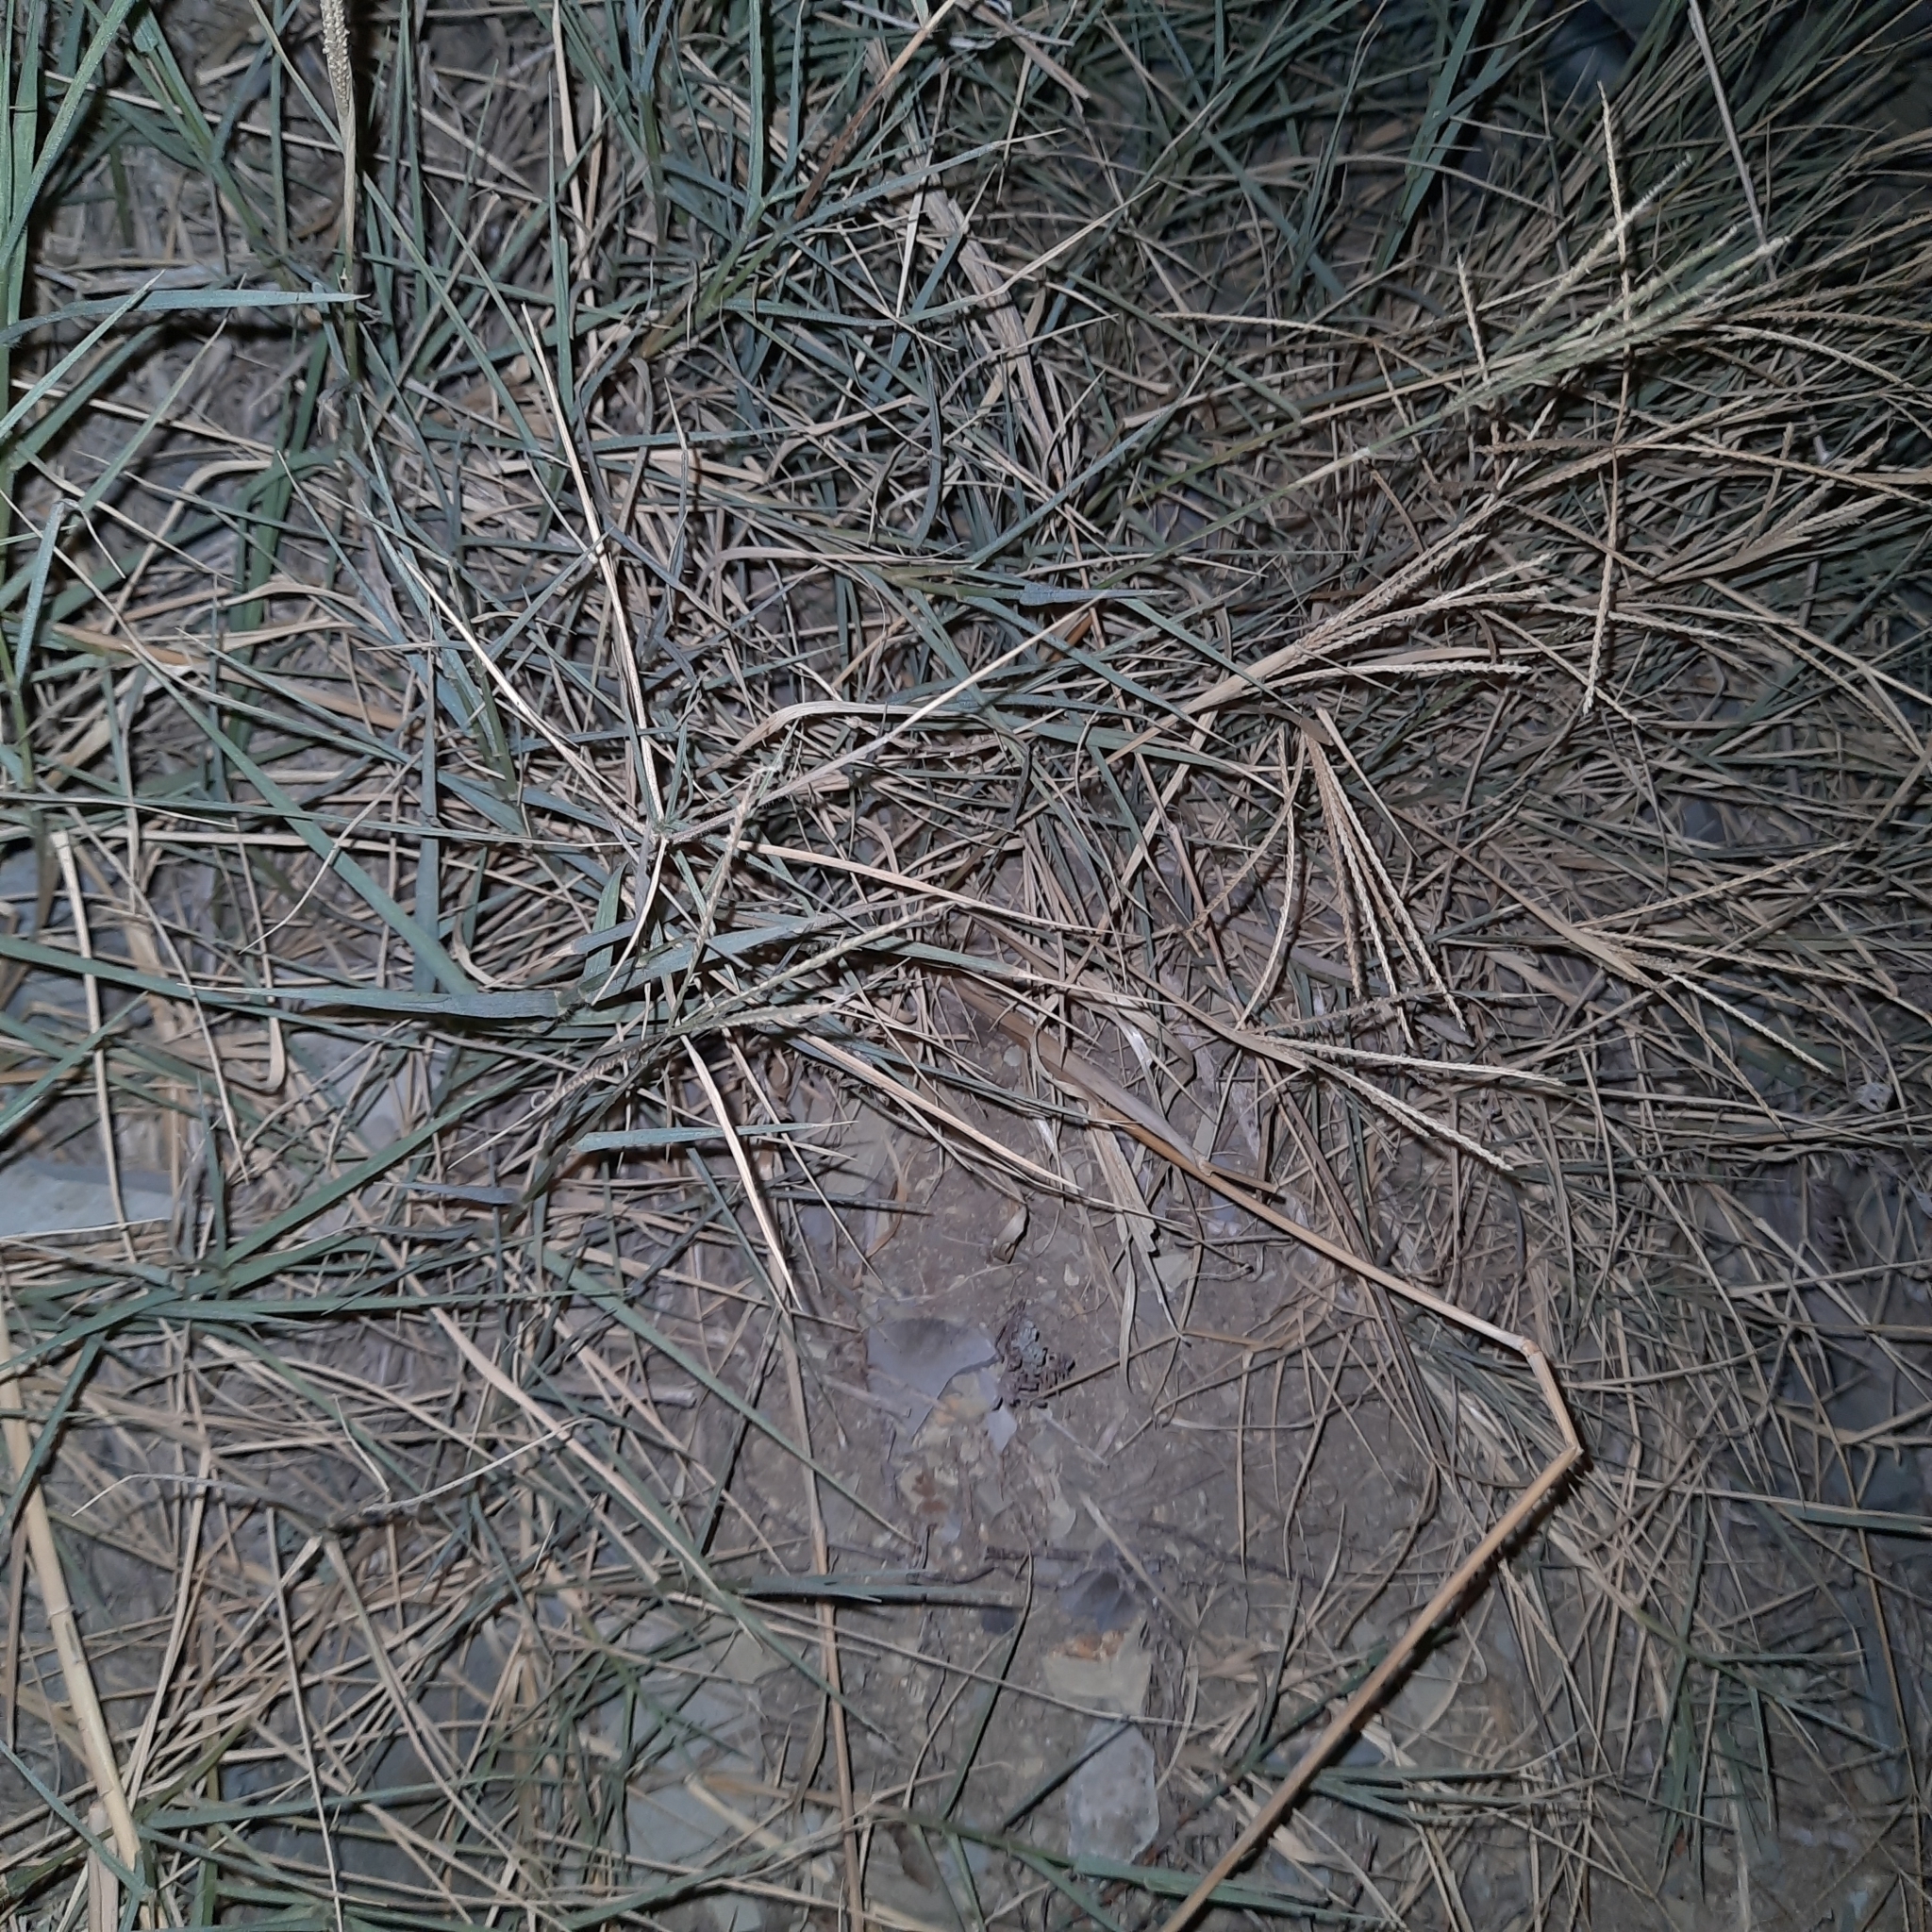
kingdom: Plantae
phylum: Tracheophyta
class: Liliopsida
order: Poales
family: Poaceae
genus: Eleusine
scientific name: Eleusine indica
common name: Yard-grass
